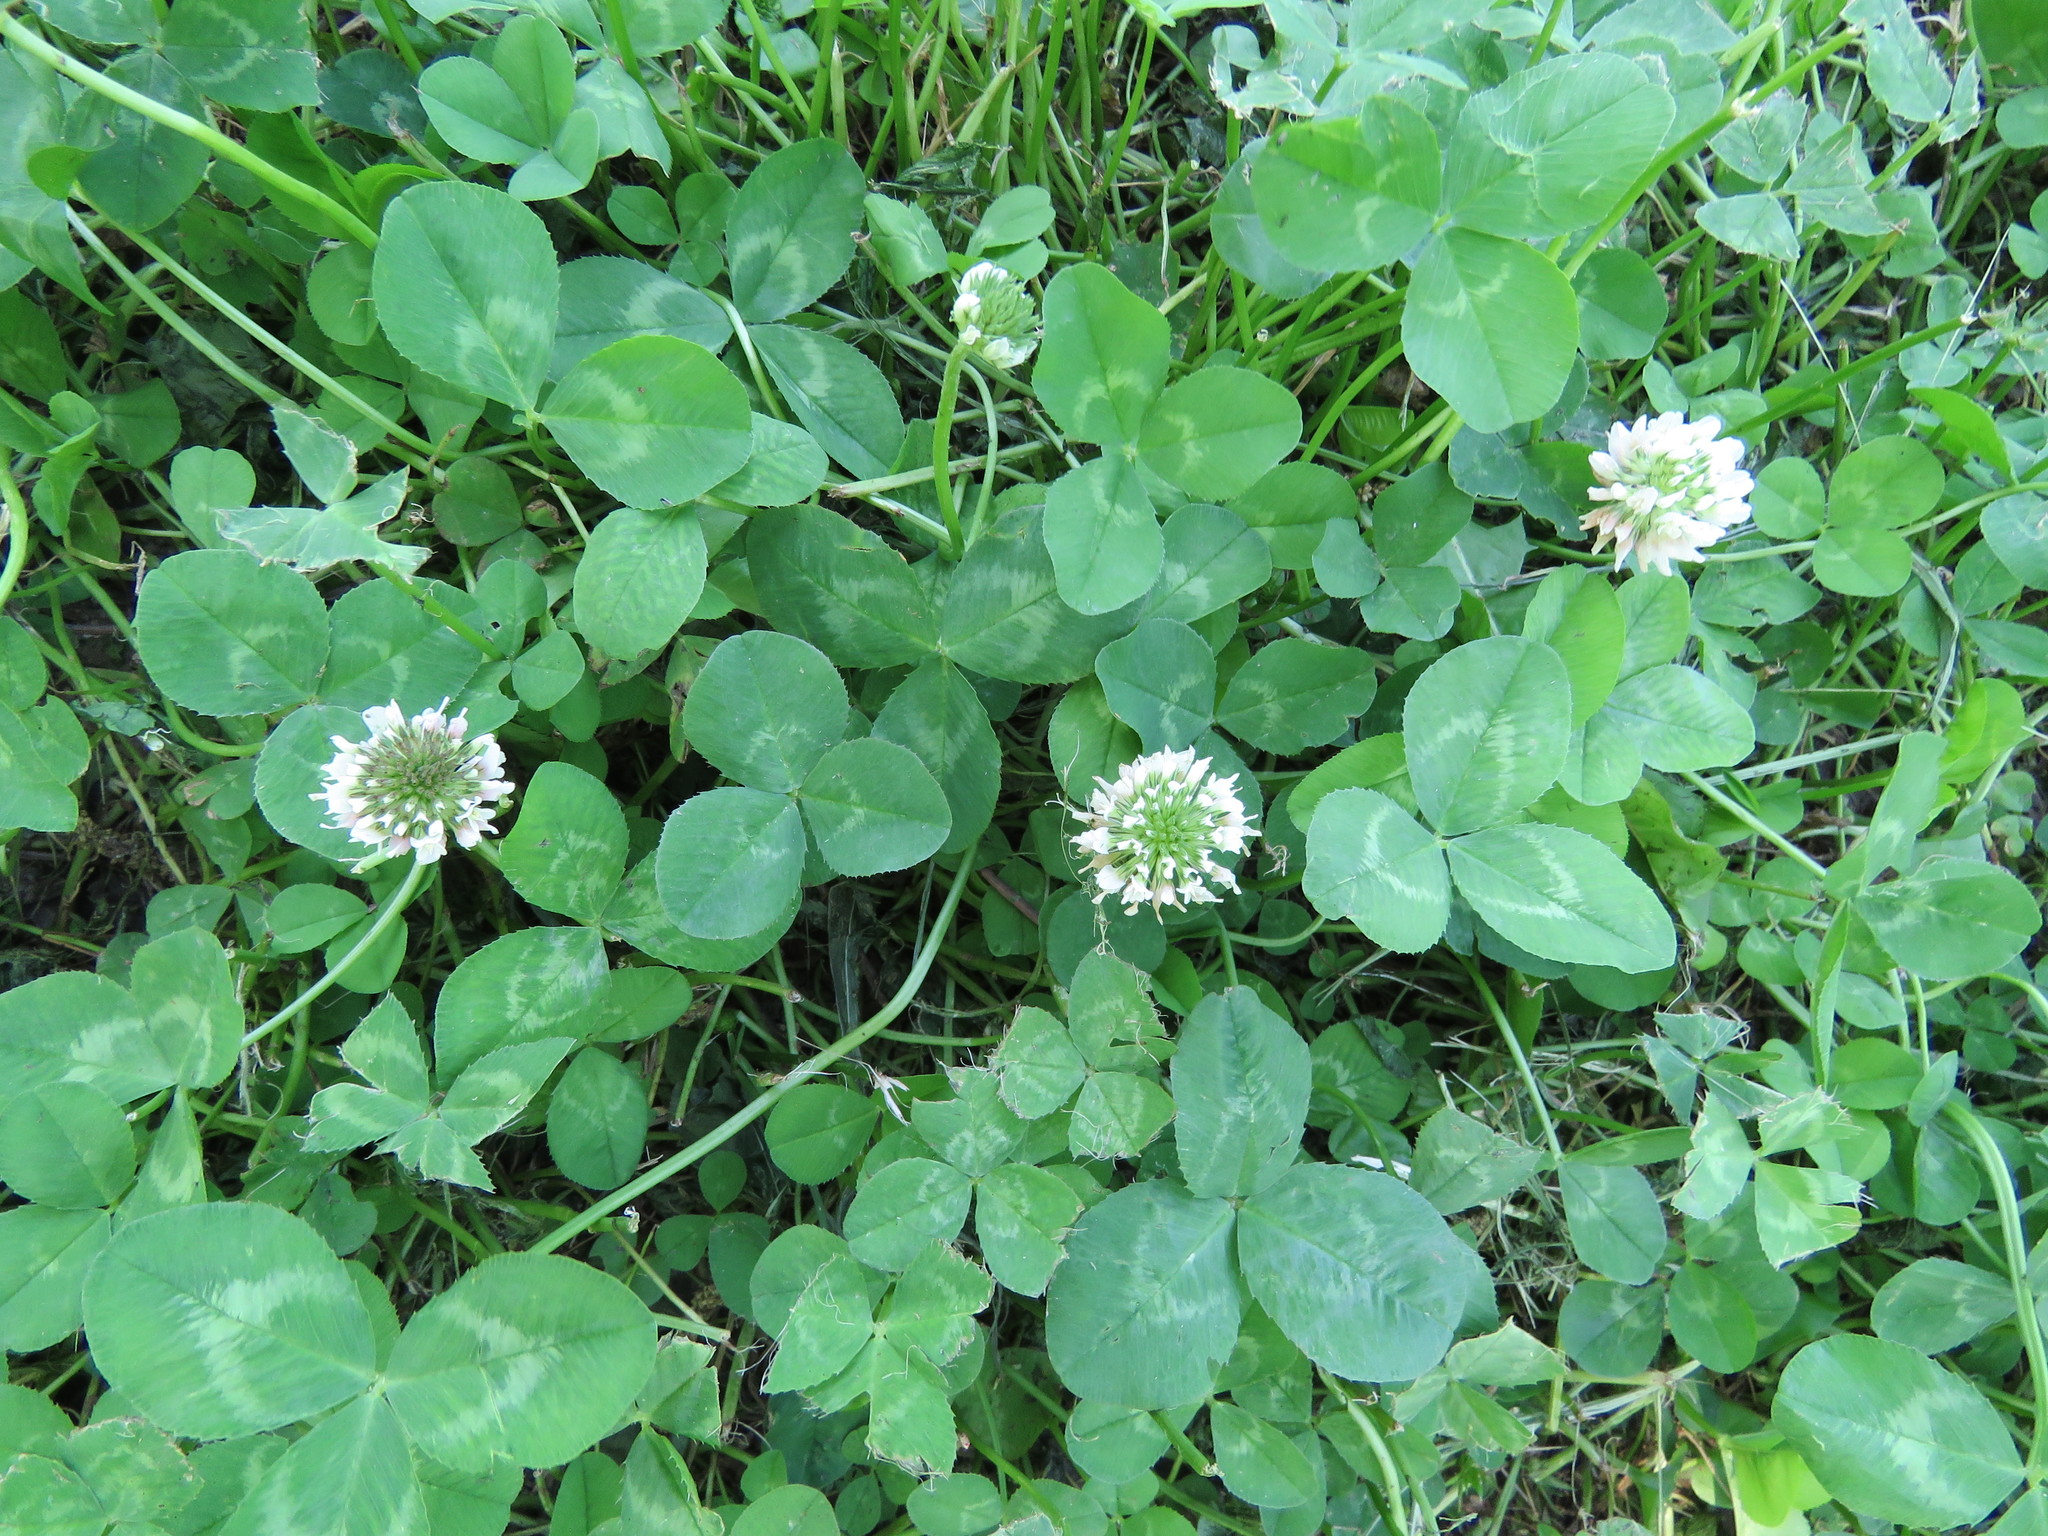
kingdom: Plantae
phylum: Tracheophyta
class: Magnoliopsida
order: Fabales
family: Fabaceae
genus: Trifolium
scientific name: Trifolium repens
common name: White clover
